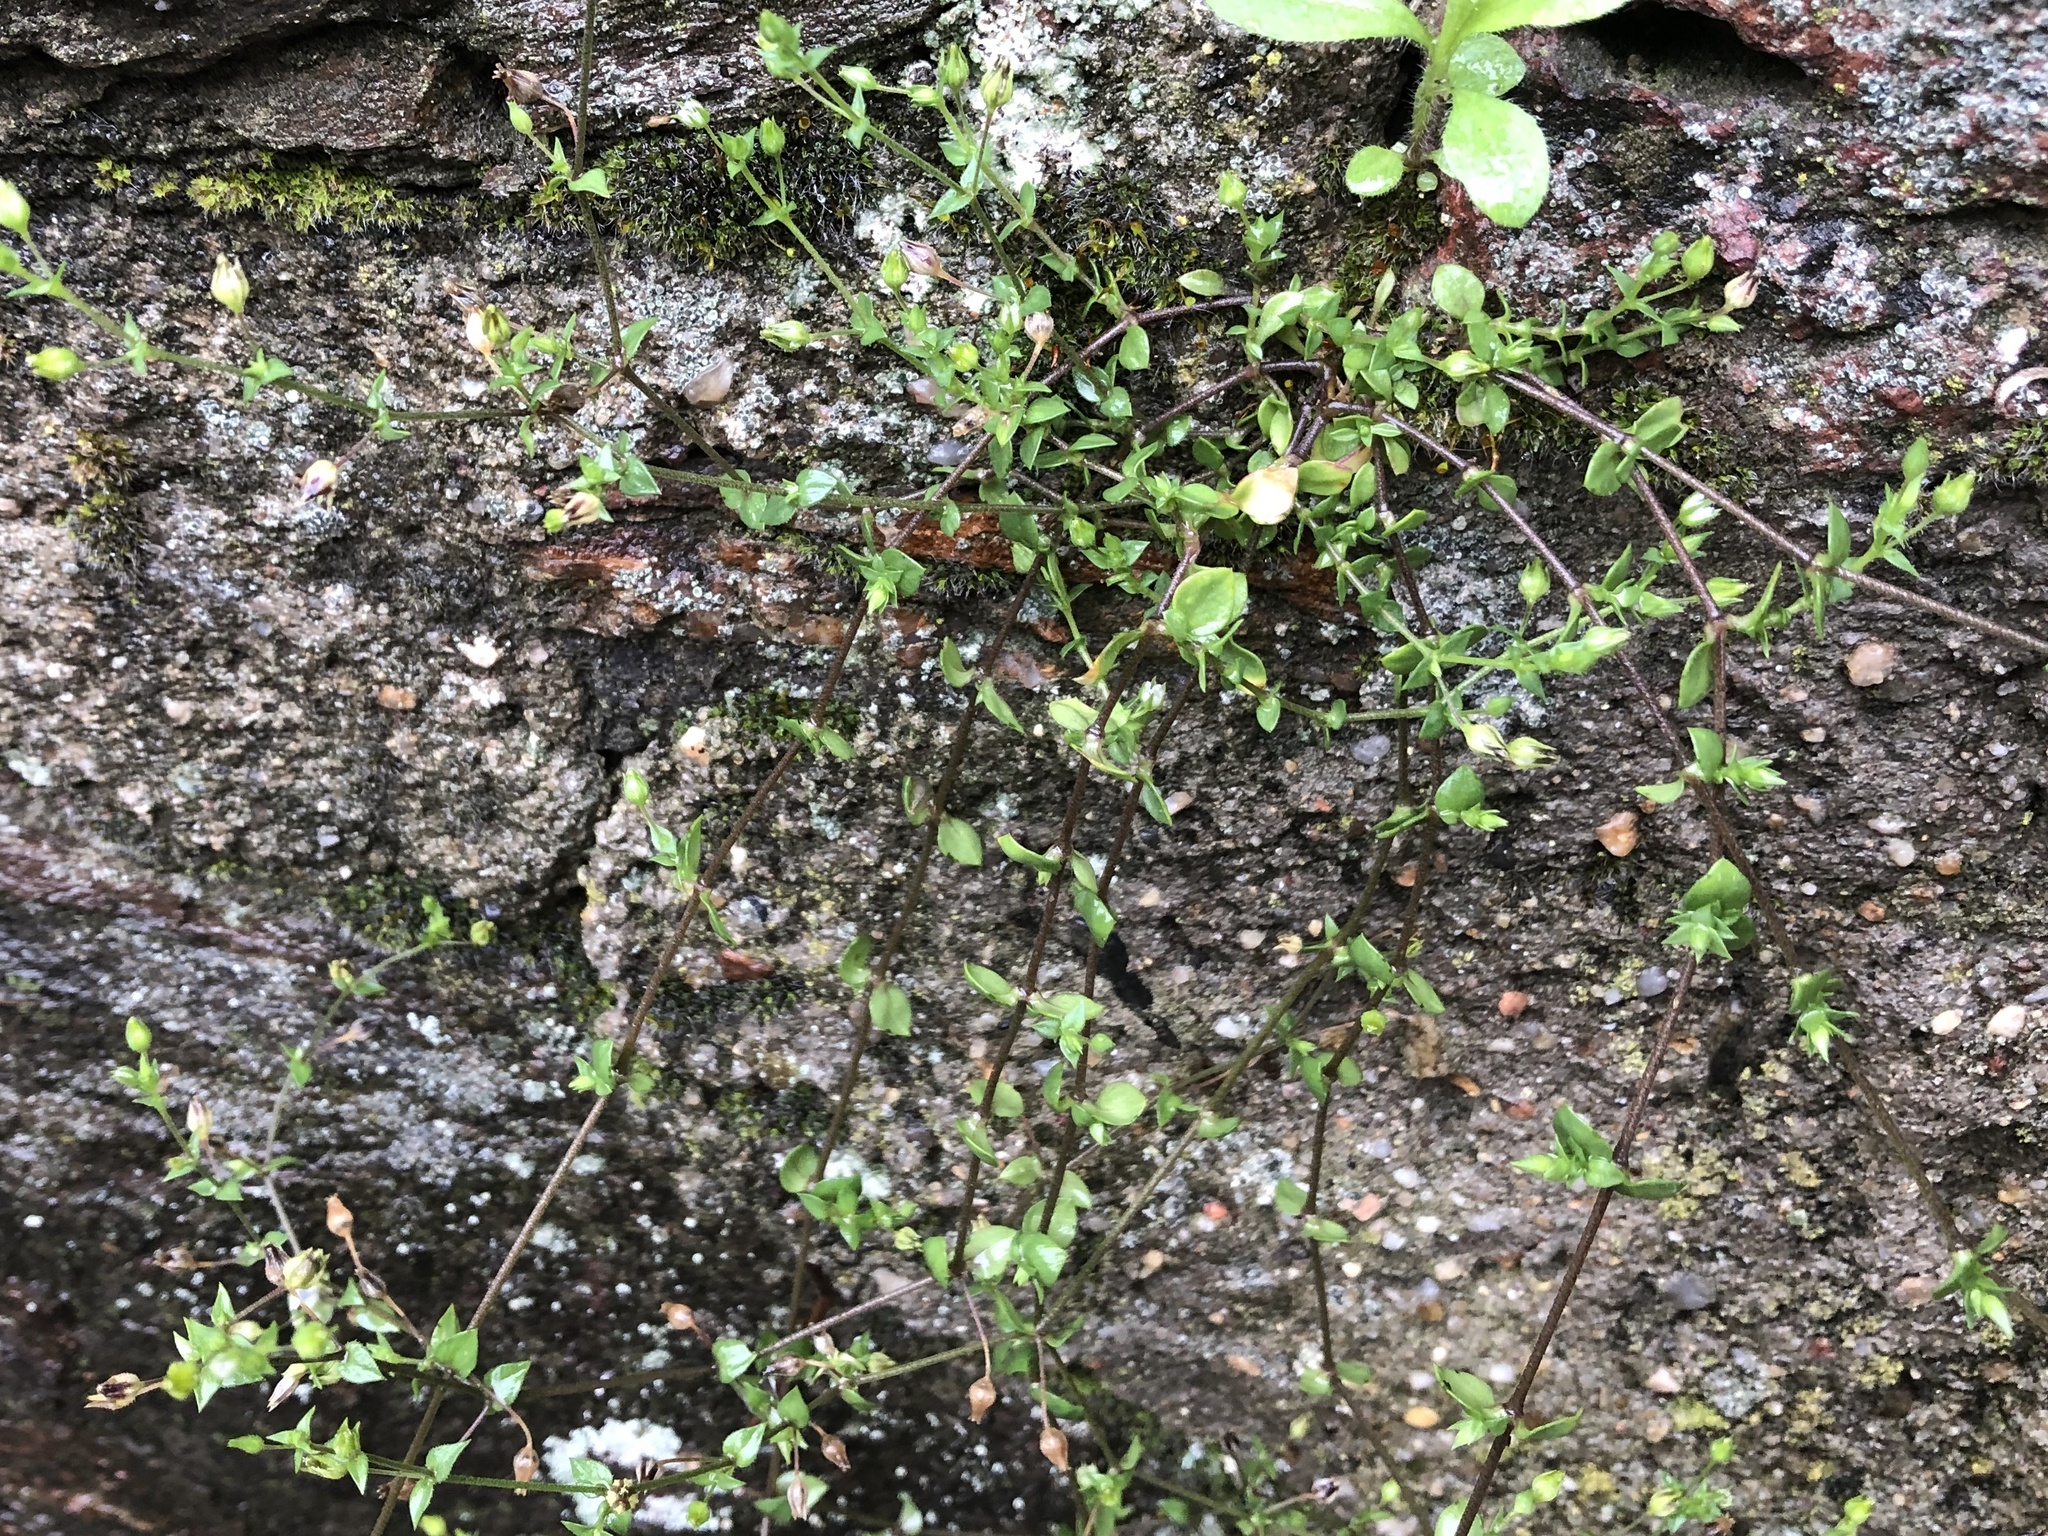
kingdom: Plantae
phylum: Tracheophyta
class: Magnoliopsida
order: Caryophyllales
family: Caryophyllaceae
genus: Arenaria
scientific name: Arenaria serpyllifolia
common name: Thyme-leaved sandwort
